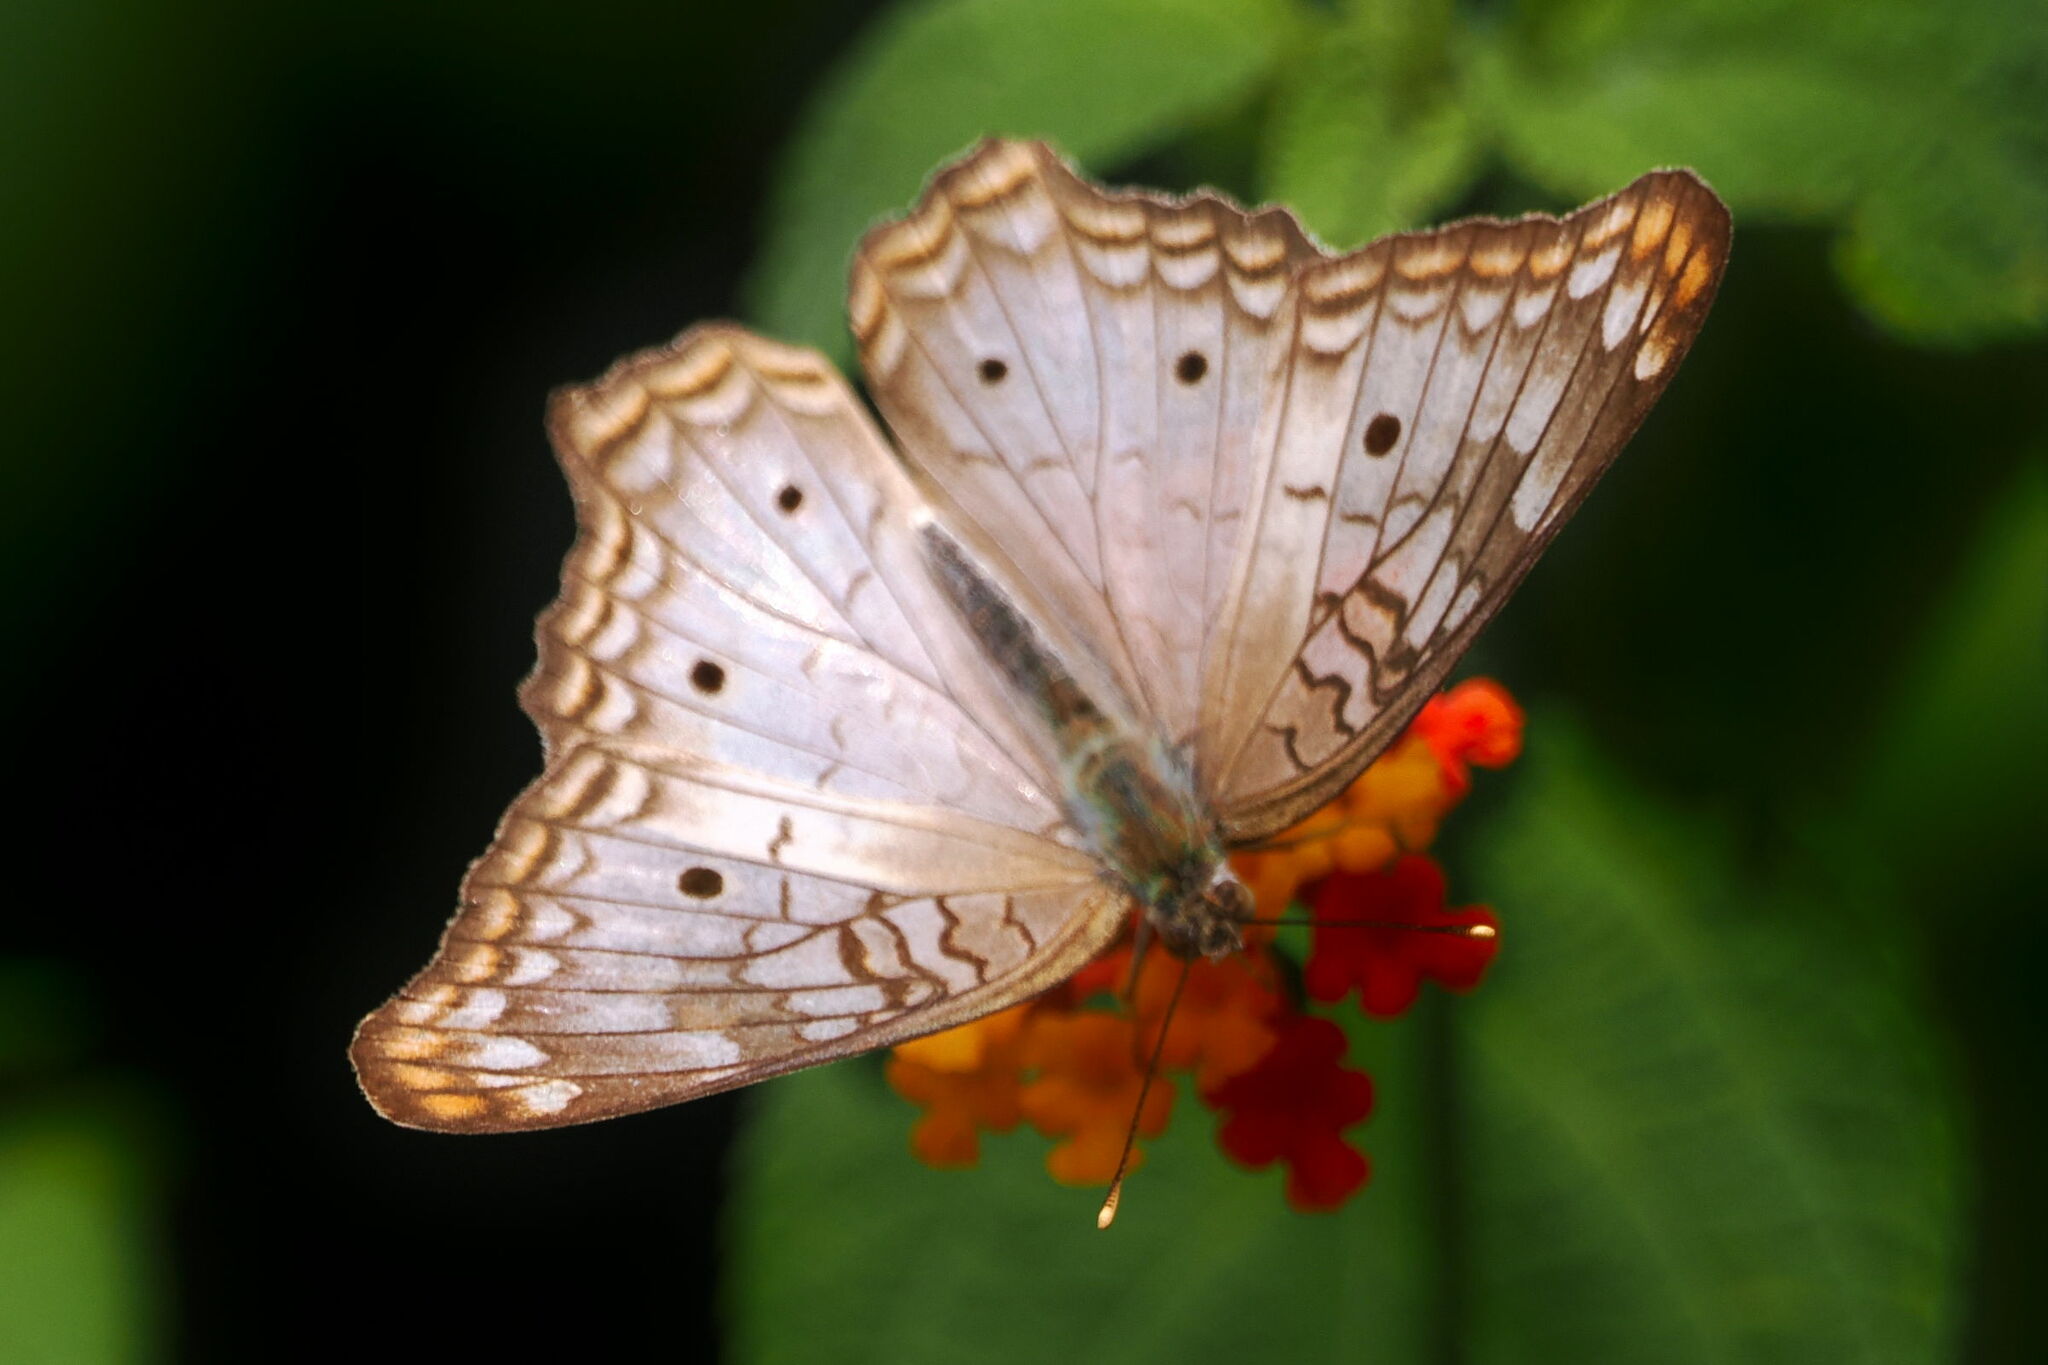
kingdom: Animalia
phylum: Arthropoda
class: Insecta
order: Lepidoptera
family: Nymphalidae
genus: Anartia
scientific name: Anartia jatrophae
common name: White peacock
